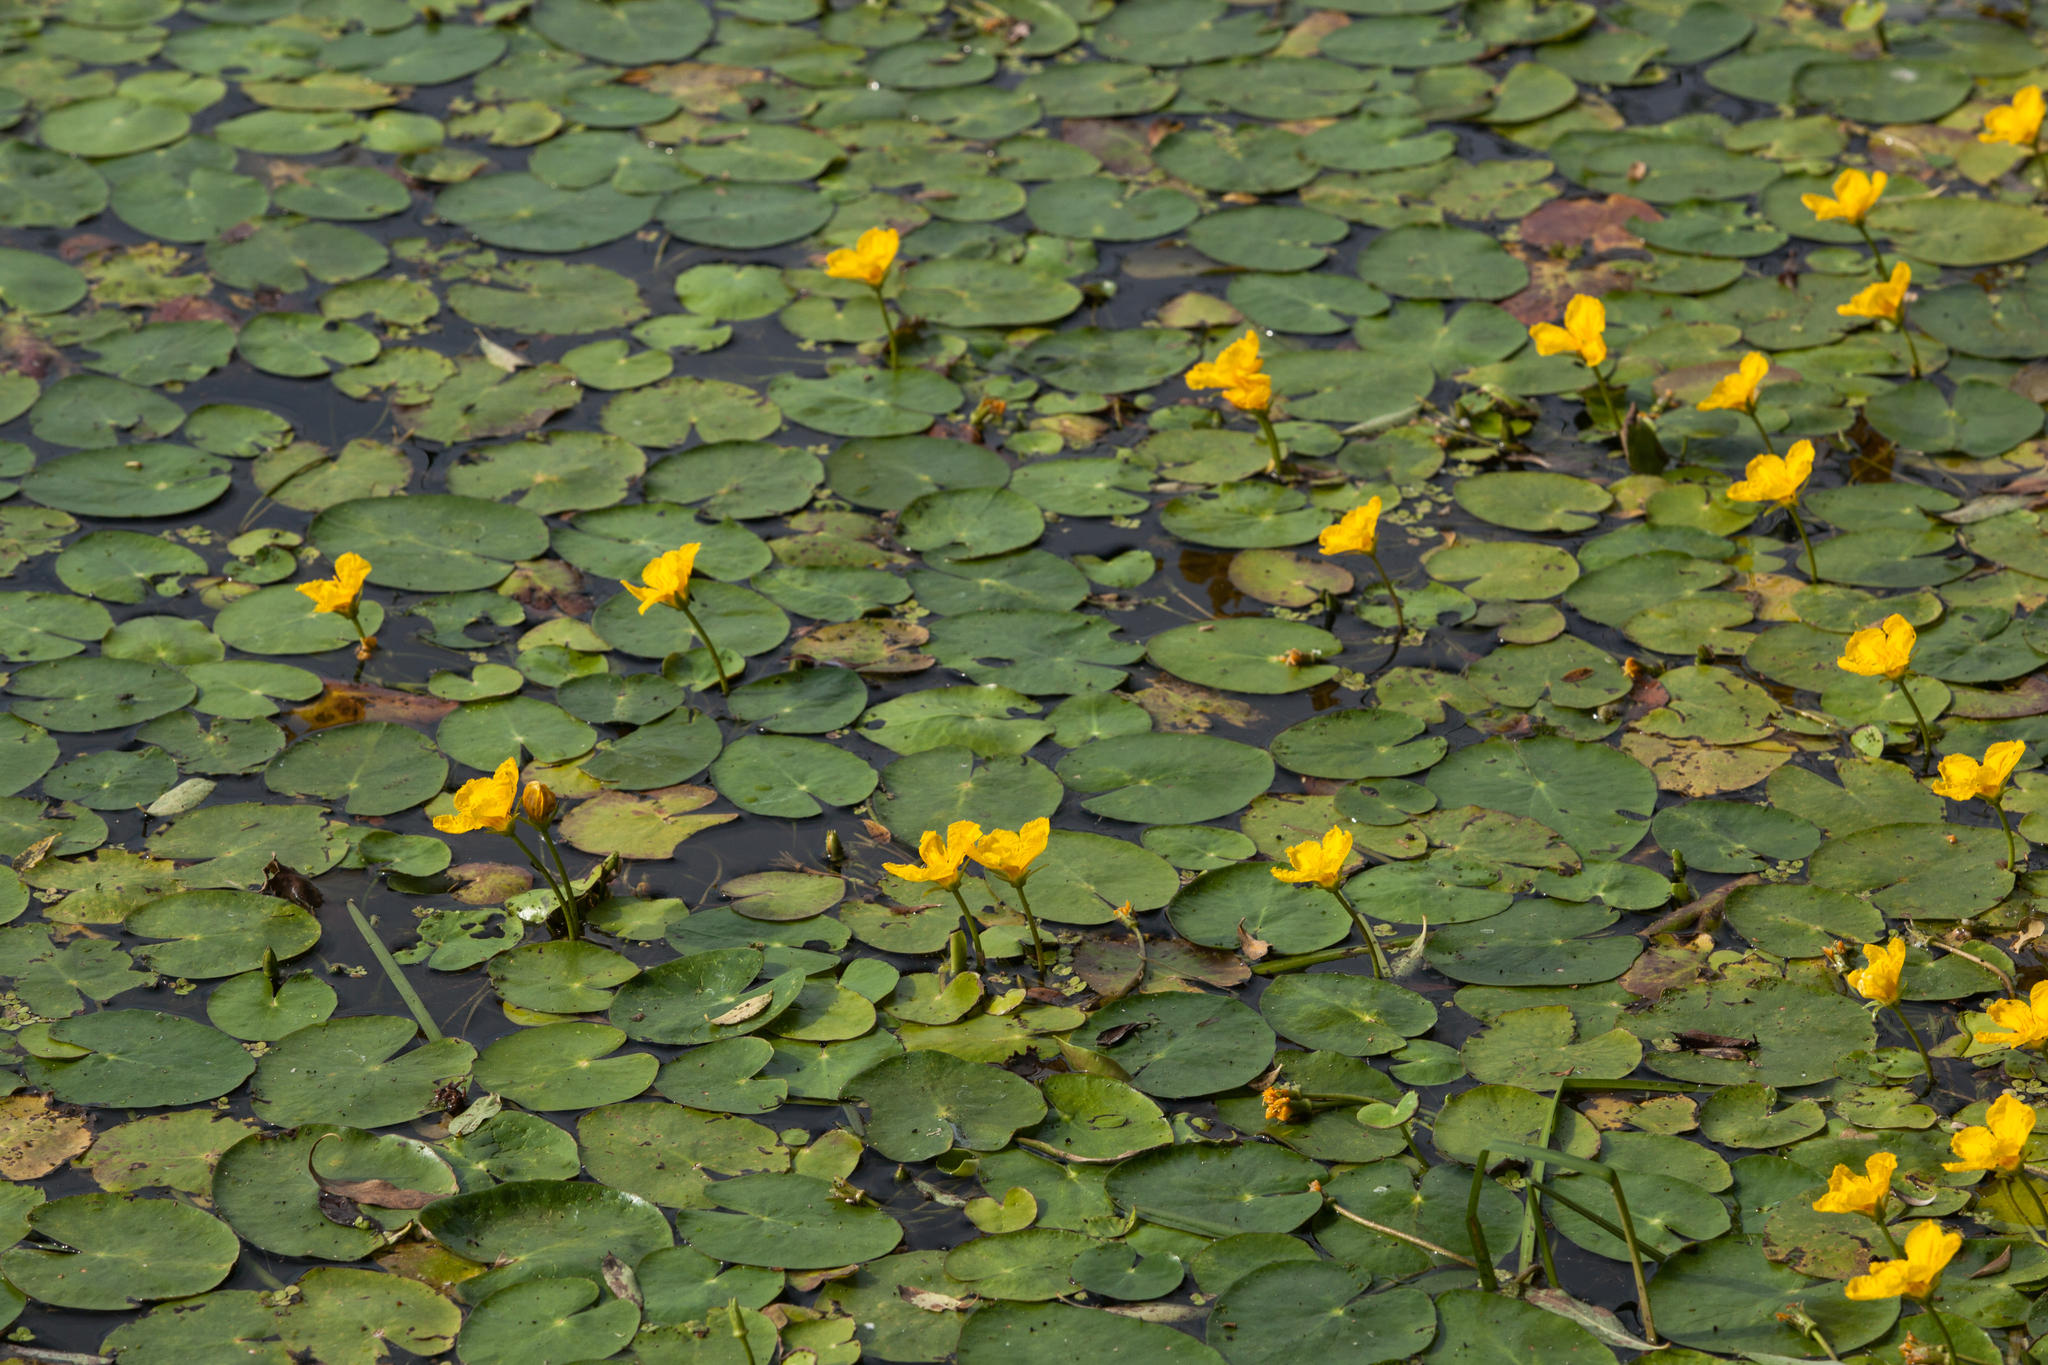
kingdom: Plantae
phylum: Tracheophyta
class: Magnoliopsida
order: Asterales
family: Menyanthaceae
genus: Nymphoides
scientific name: Nymphoides peltata
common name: Fringed water-lily
